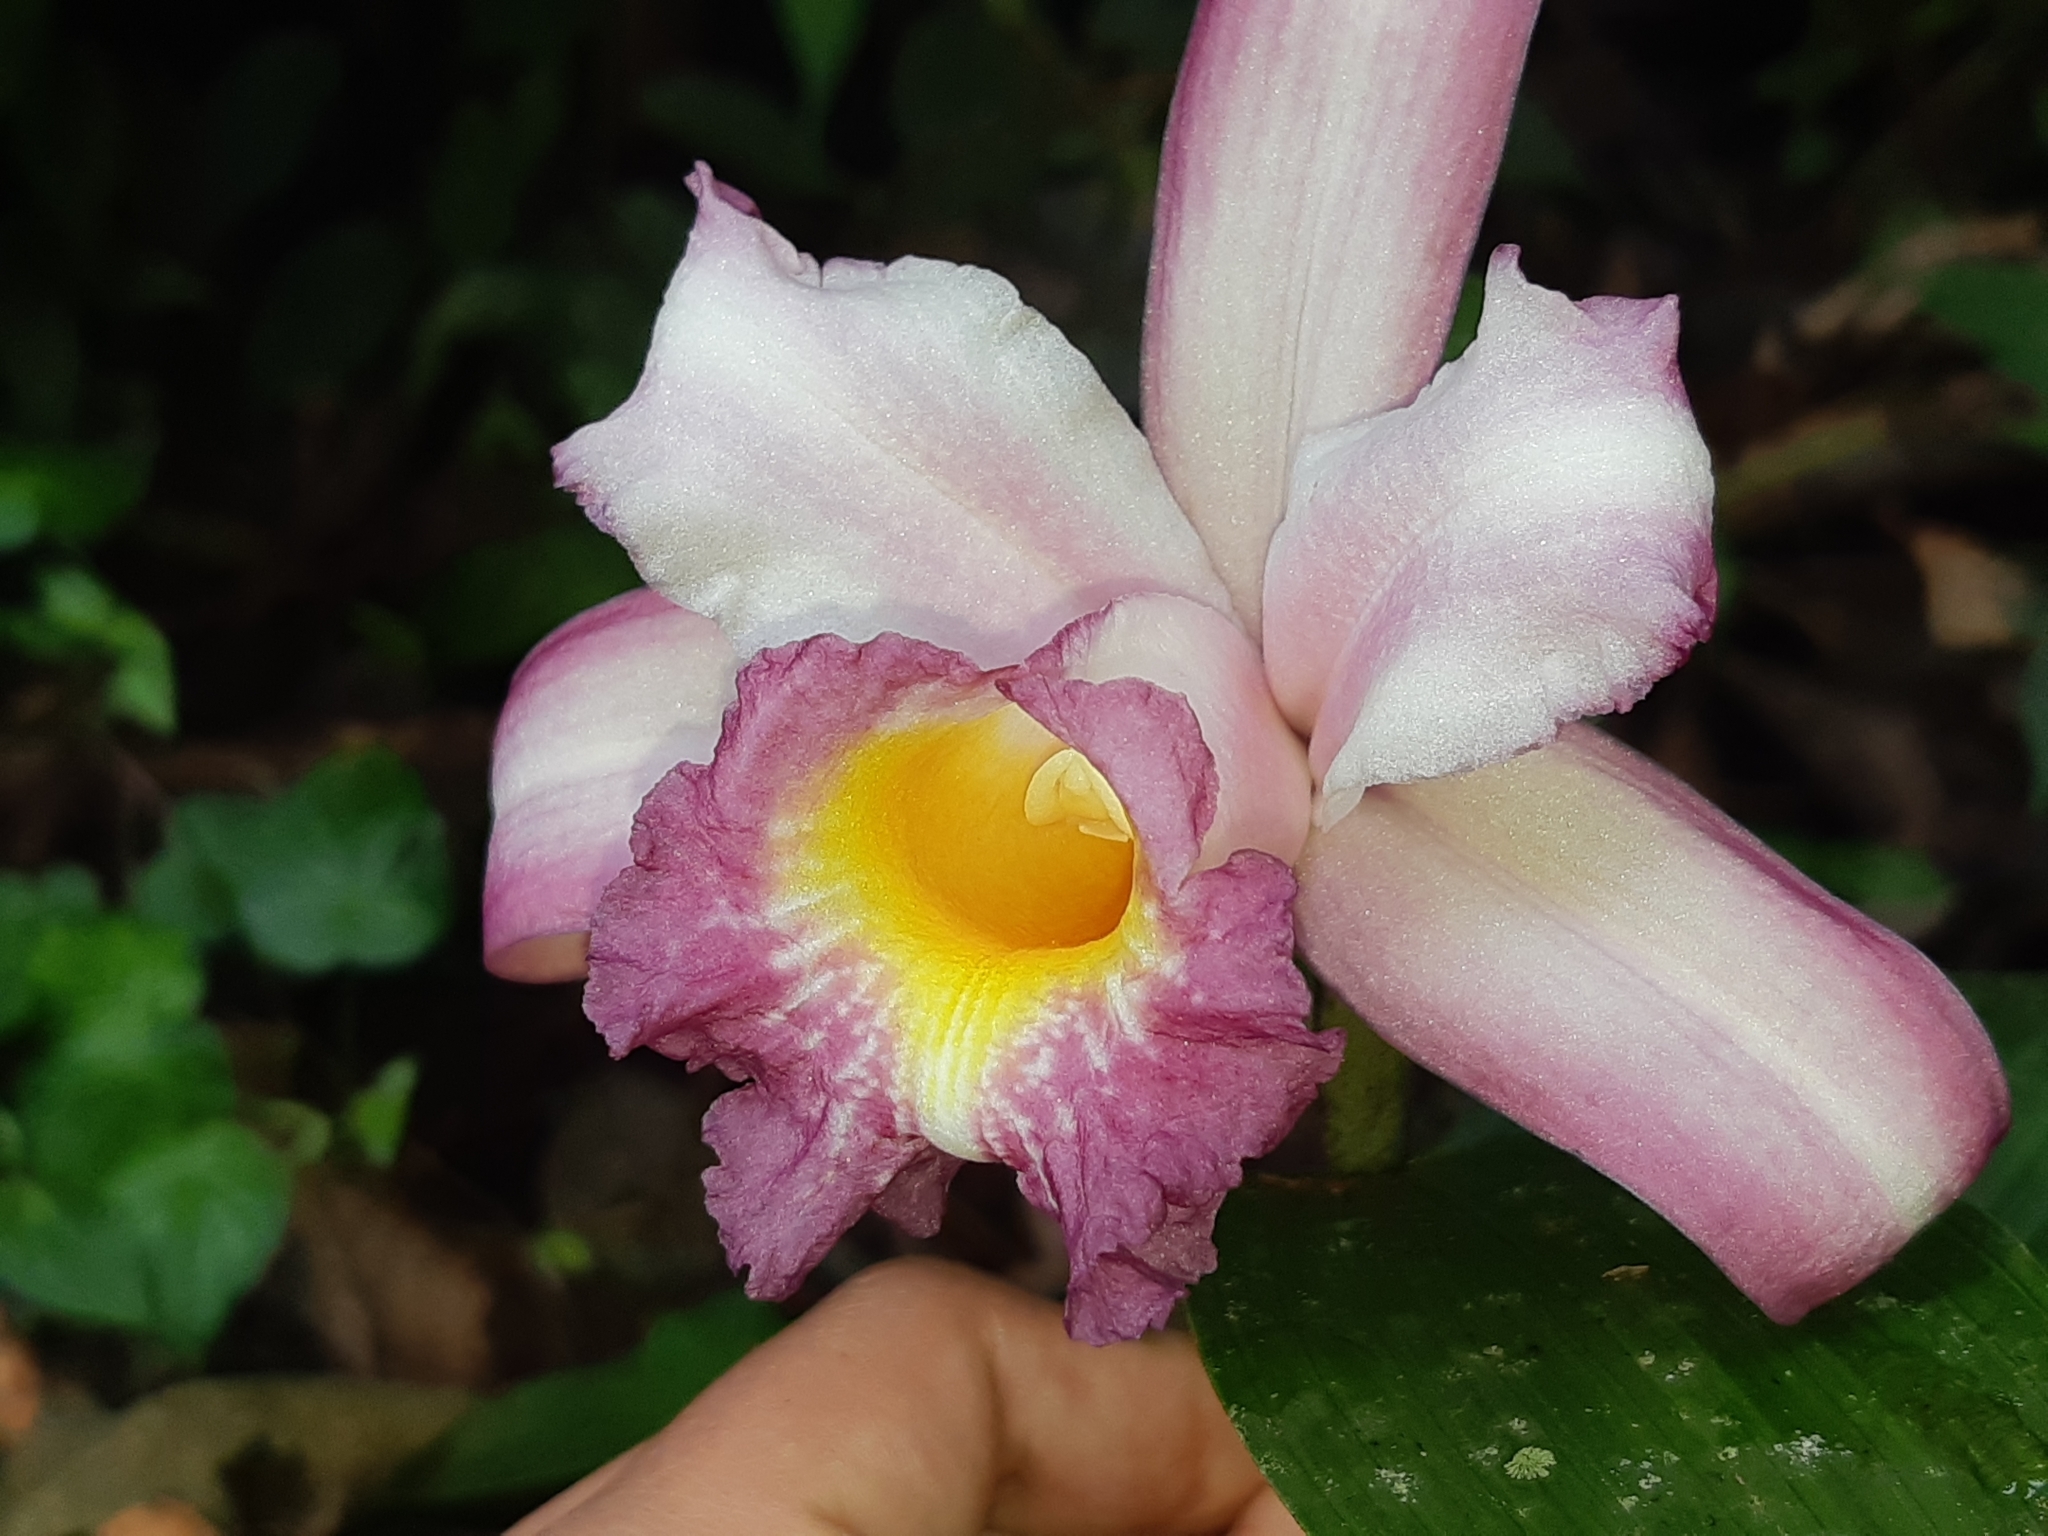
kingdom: Plantae
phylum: Tracheophyta
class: Liliopsida
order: Asparagales
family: Orchidaceae
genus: Sobralia
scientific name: Sobralia ecuadorana
